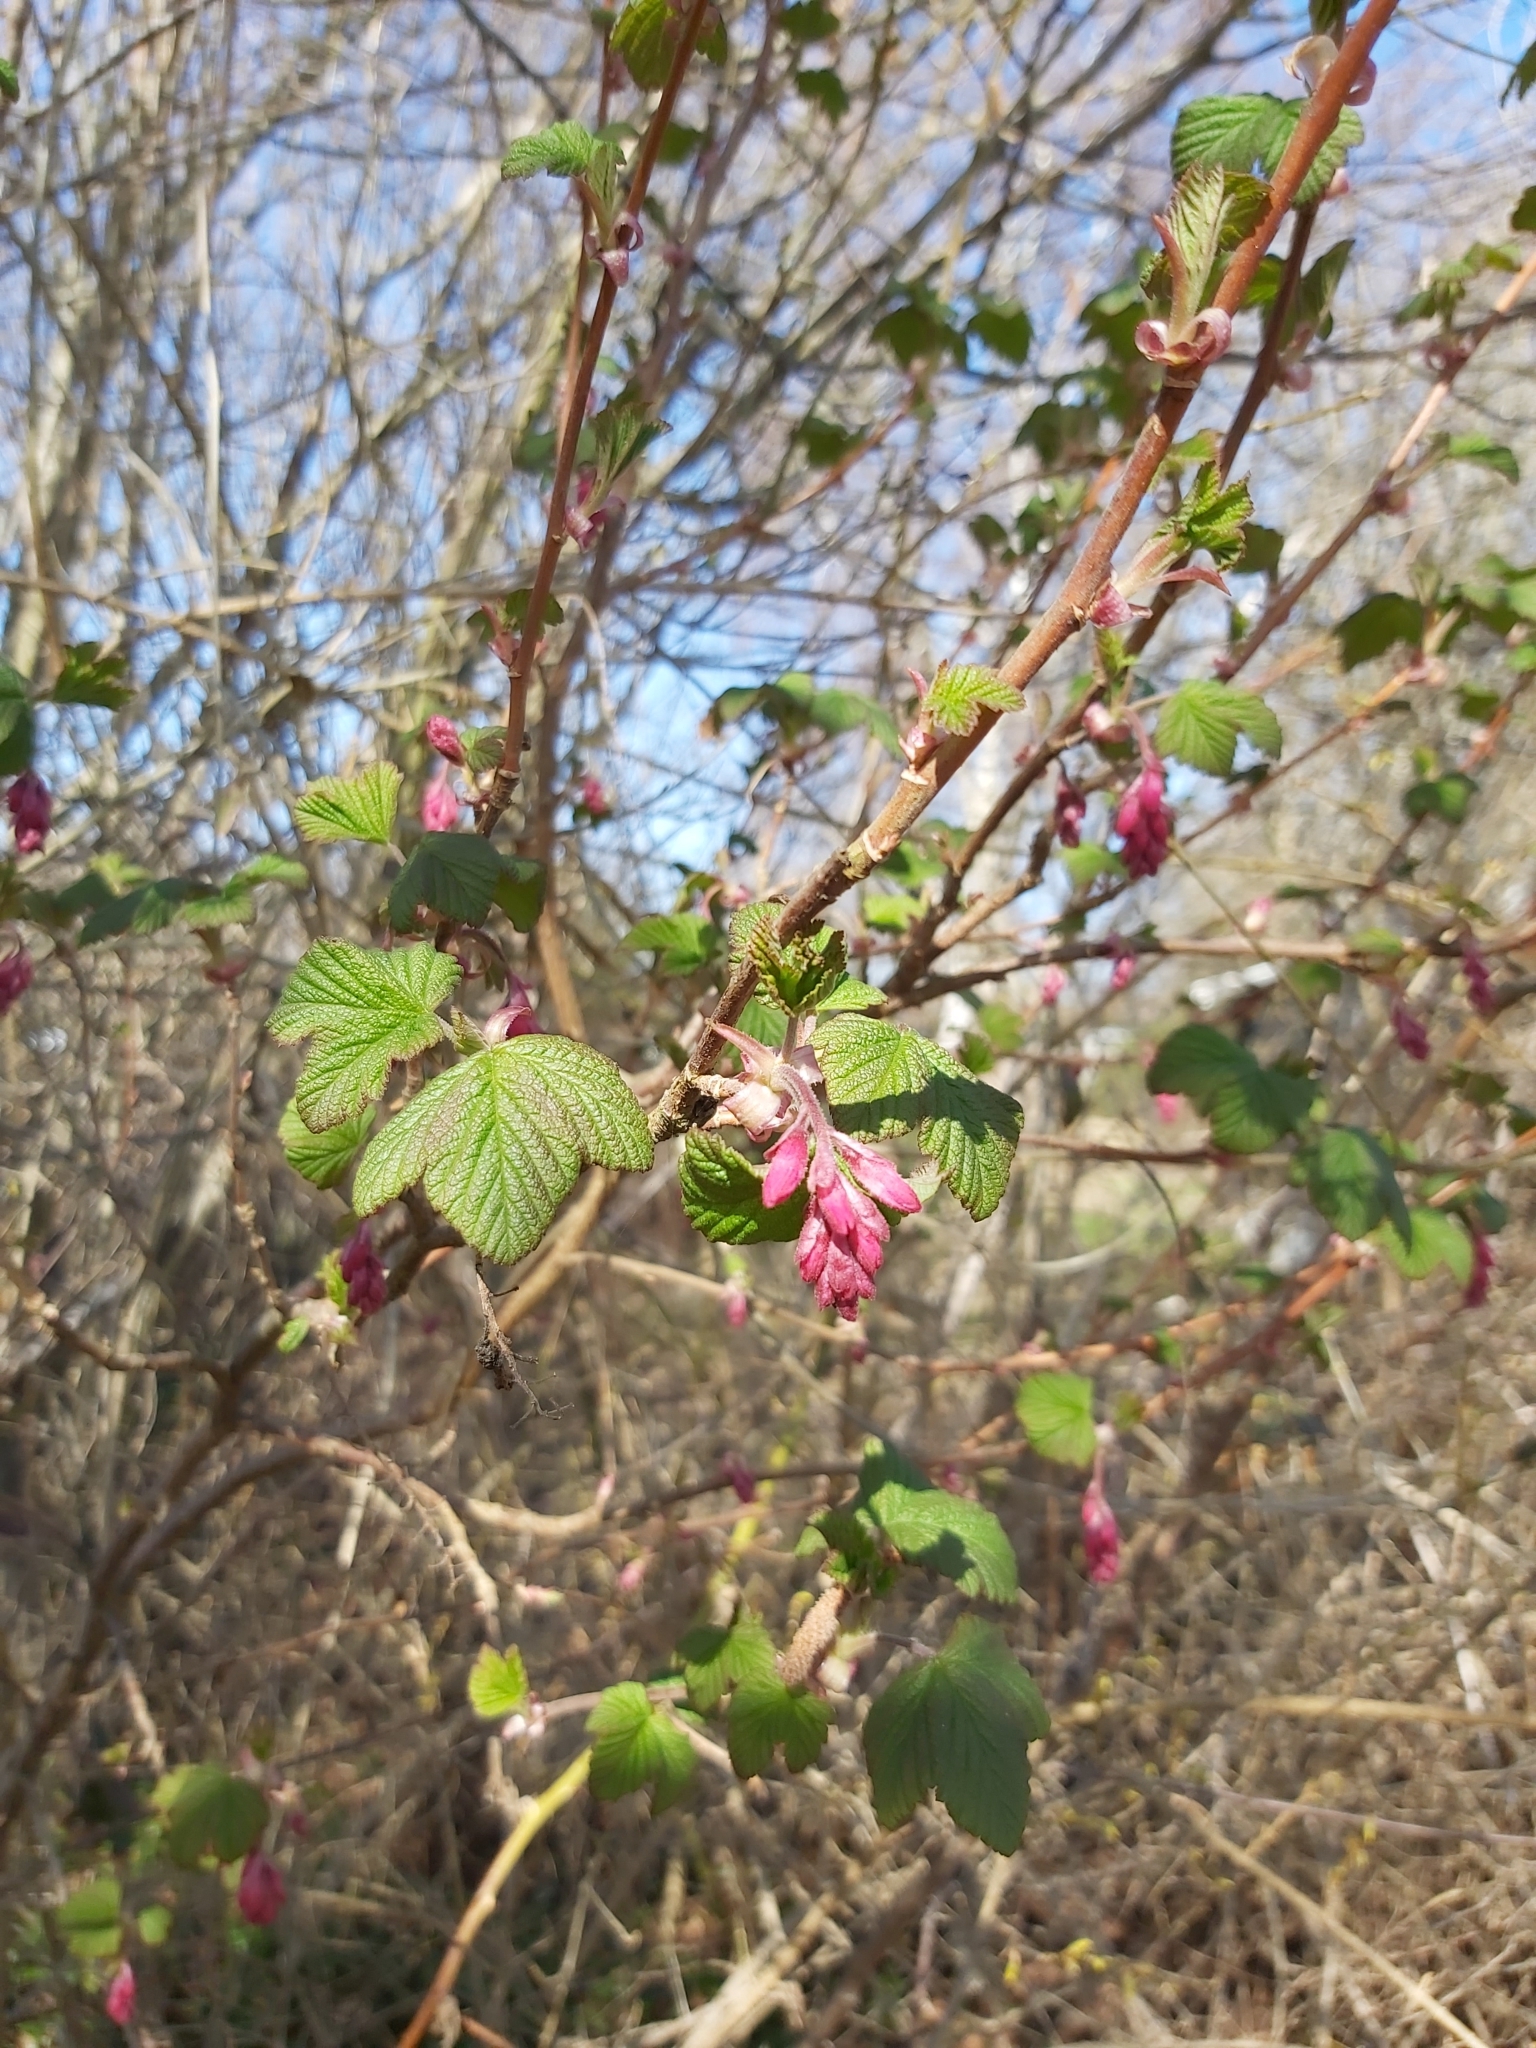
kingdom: Plantae
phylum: Tracheophyta
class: Magnoliopsida
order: Saxifragales
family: Grossulariaceae
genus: Ribes
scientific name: Ribes sanguineum
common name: Flowering currant
